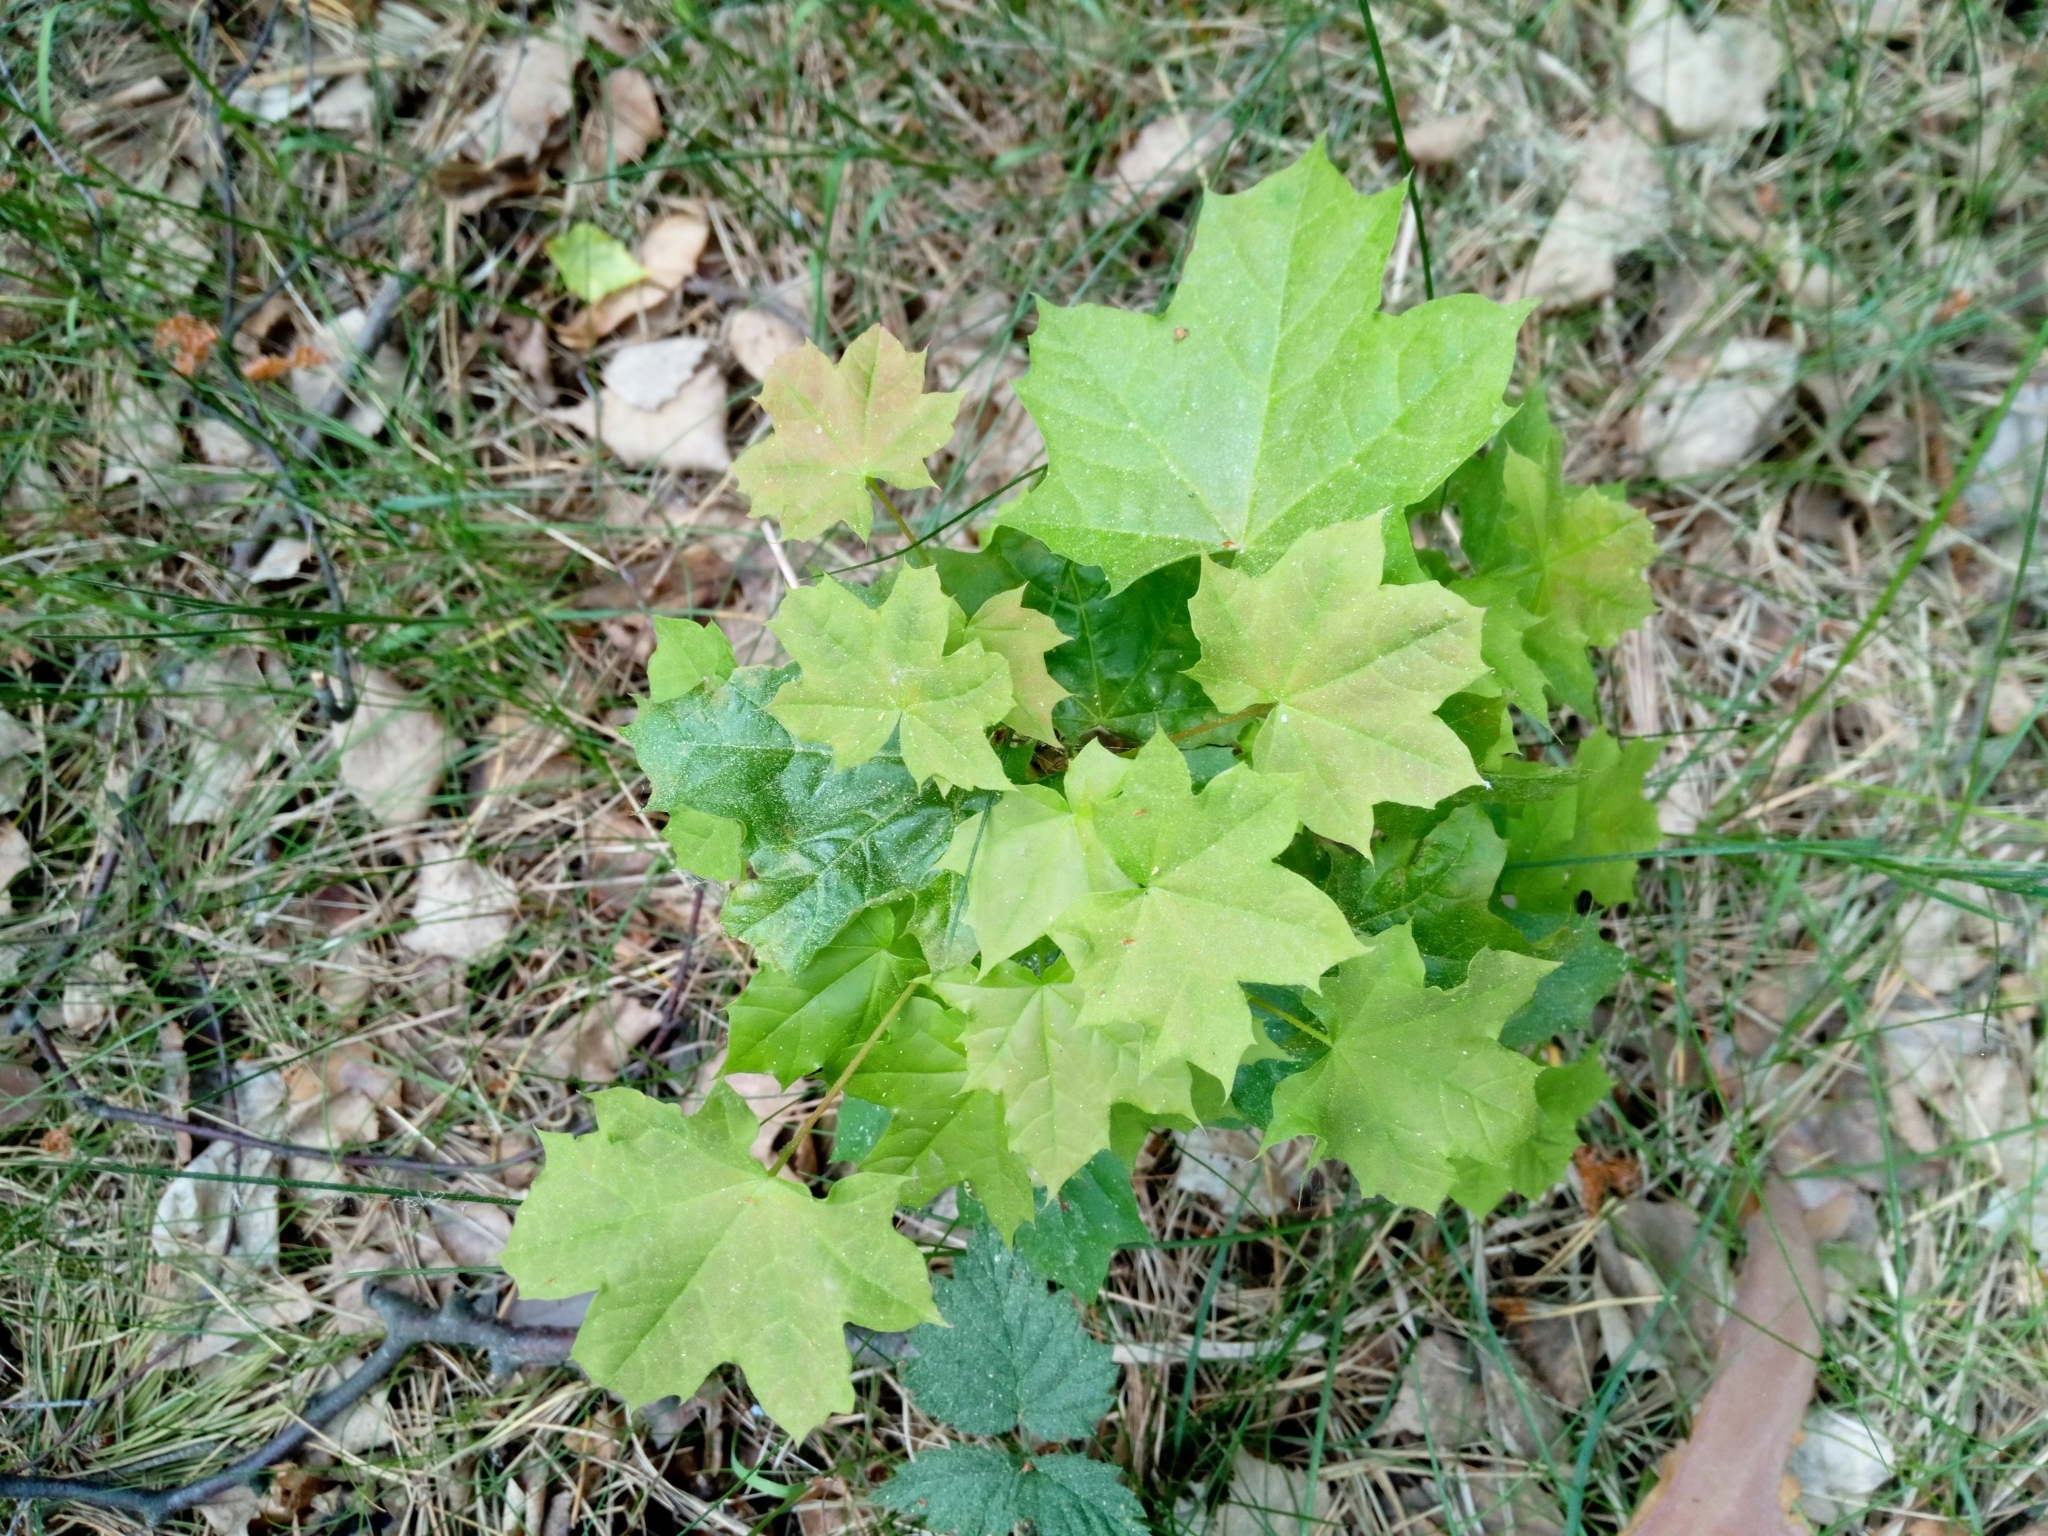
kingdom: Plantae
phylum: Tracheophyta
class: Magnoliopsida
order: Sapindales
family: Sapindaceae
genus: Acer
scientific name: Acer platanoides
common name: Norway maple
